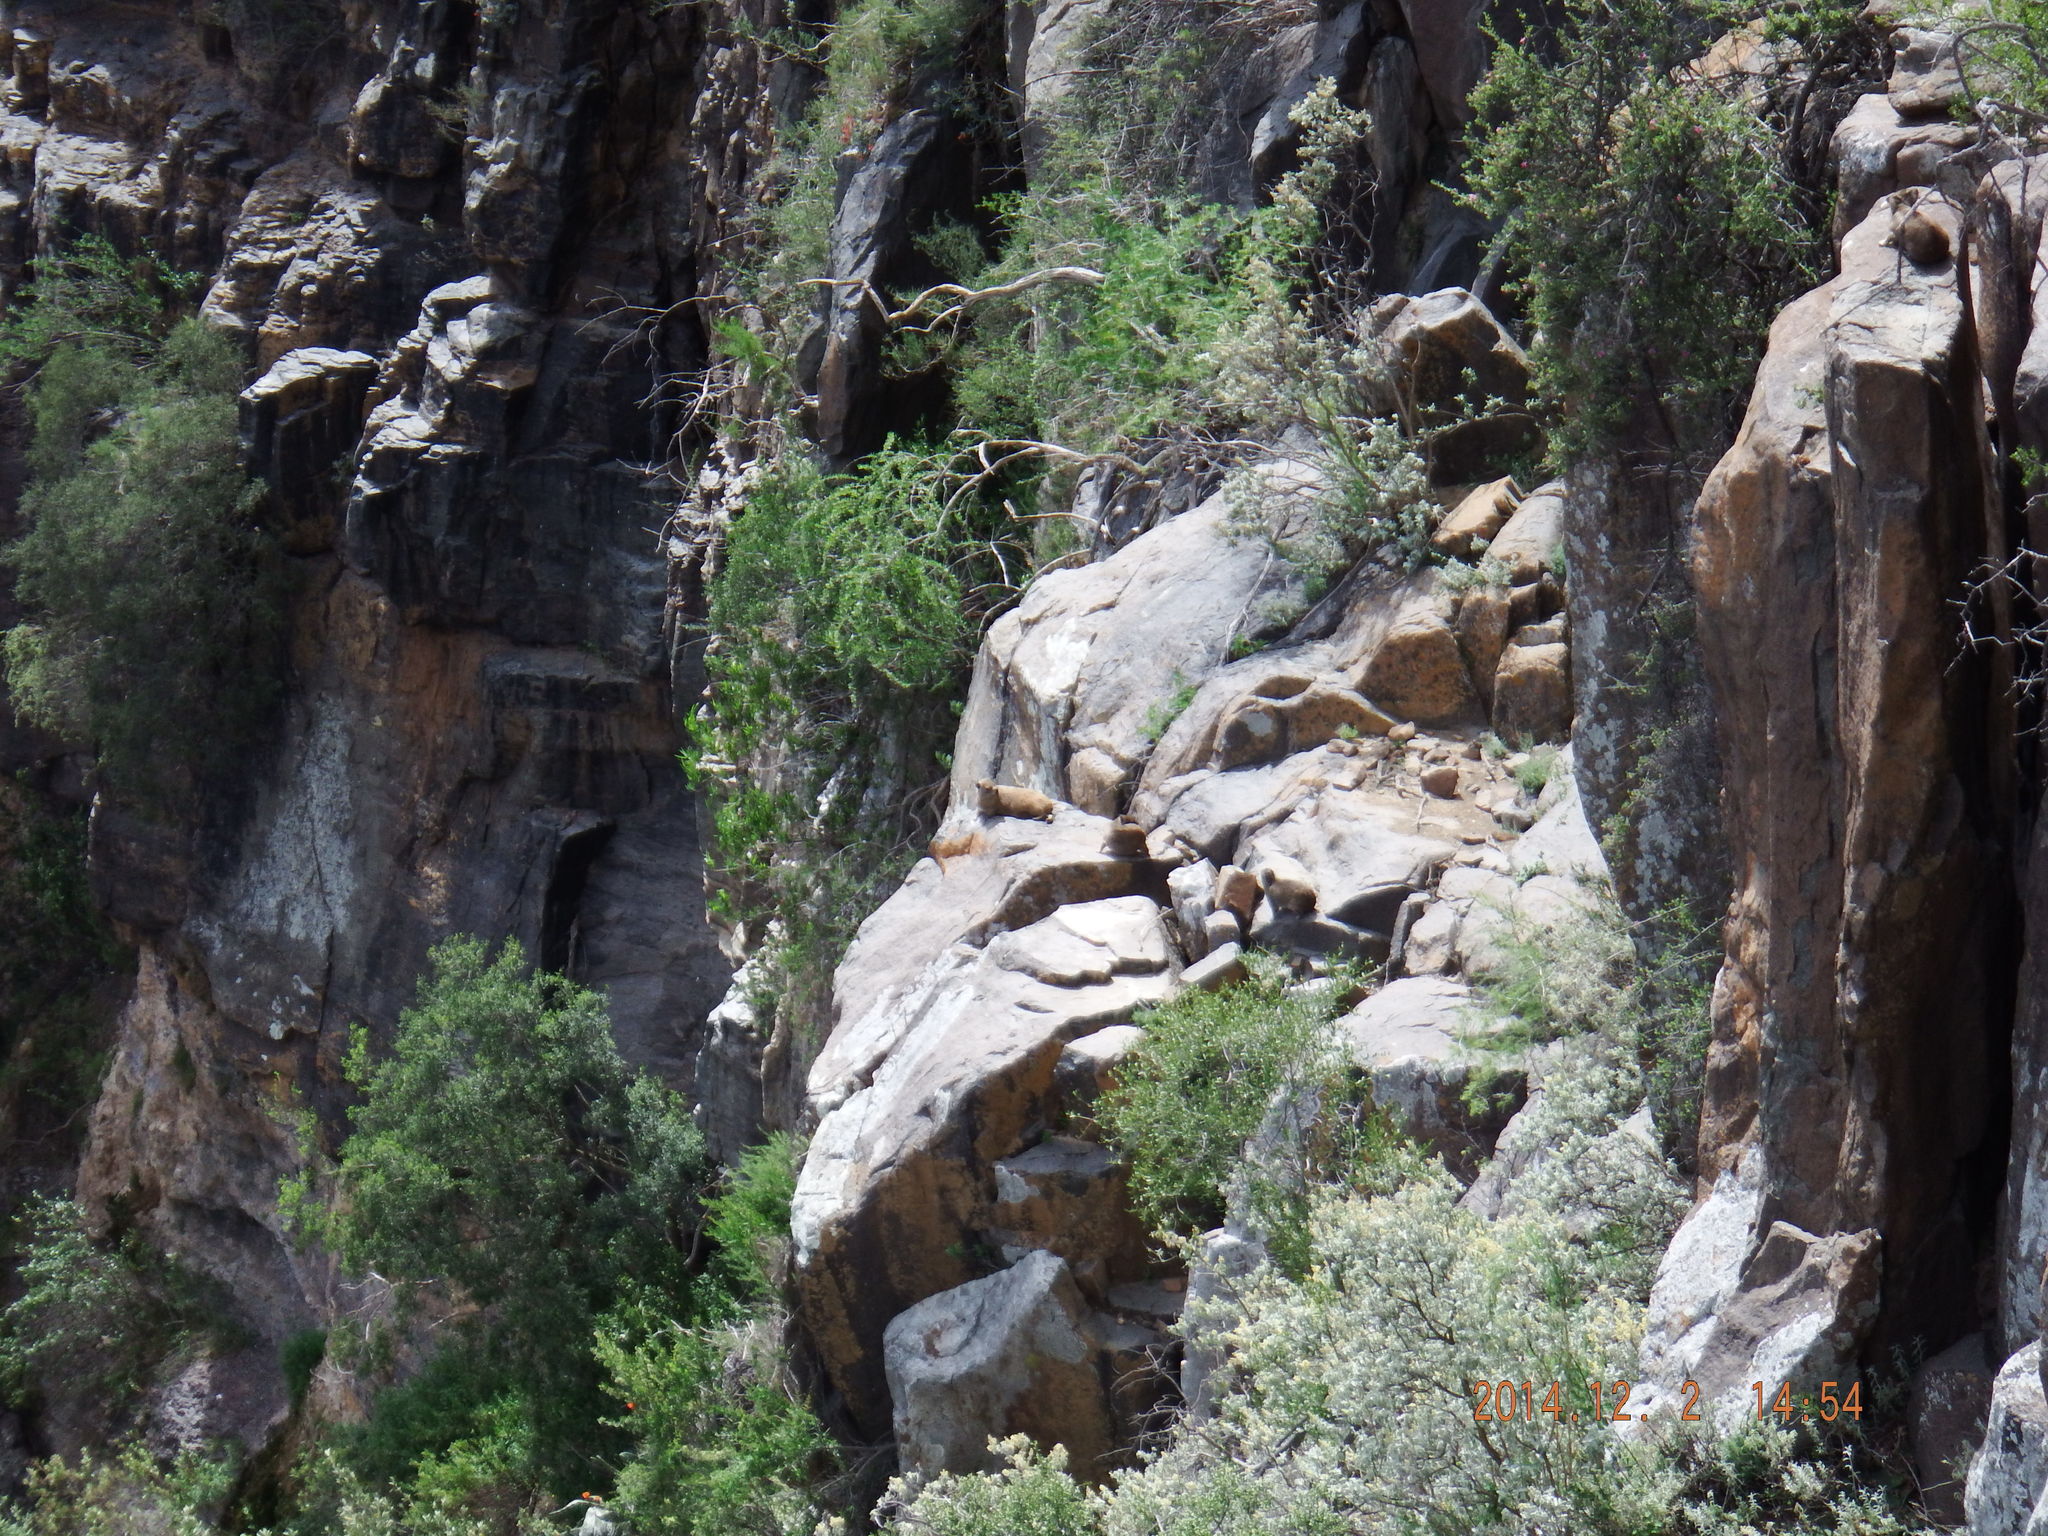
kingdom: Animalia
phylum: Chordata
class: Mammalia
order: Hyracoidea
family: Procaviidae
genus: Procavia
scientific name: Procavia capensis
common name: Rock hyrax
